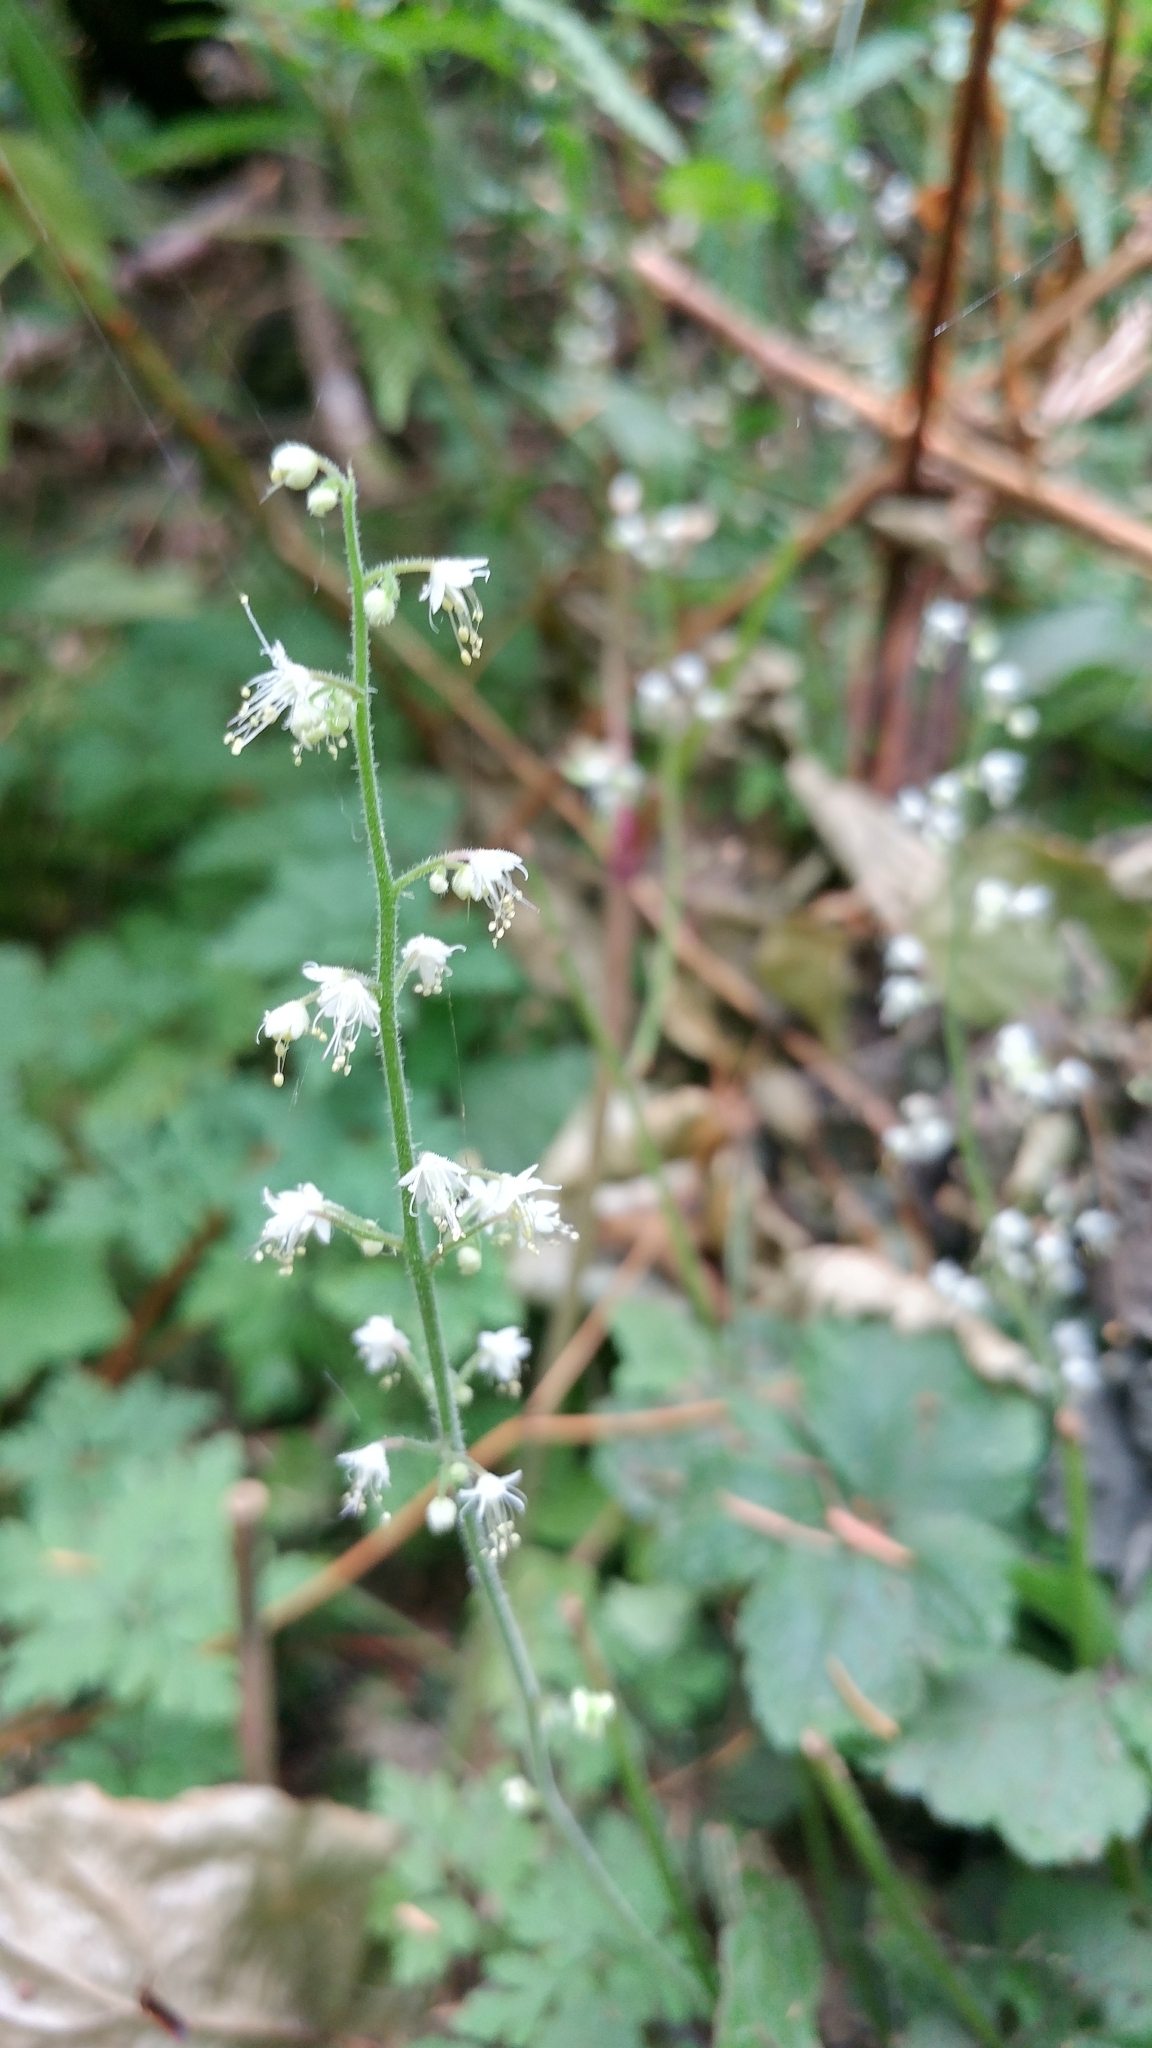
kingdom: Plantae
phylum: Tracheophyta
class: Magnoliopsida
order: Saxifragales
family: Saxifragaceae
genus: Tiarella
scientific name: Tiarella trifoliata
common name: Sugar-scoop
